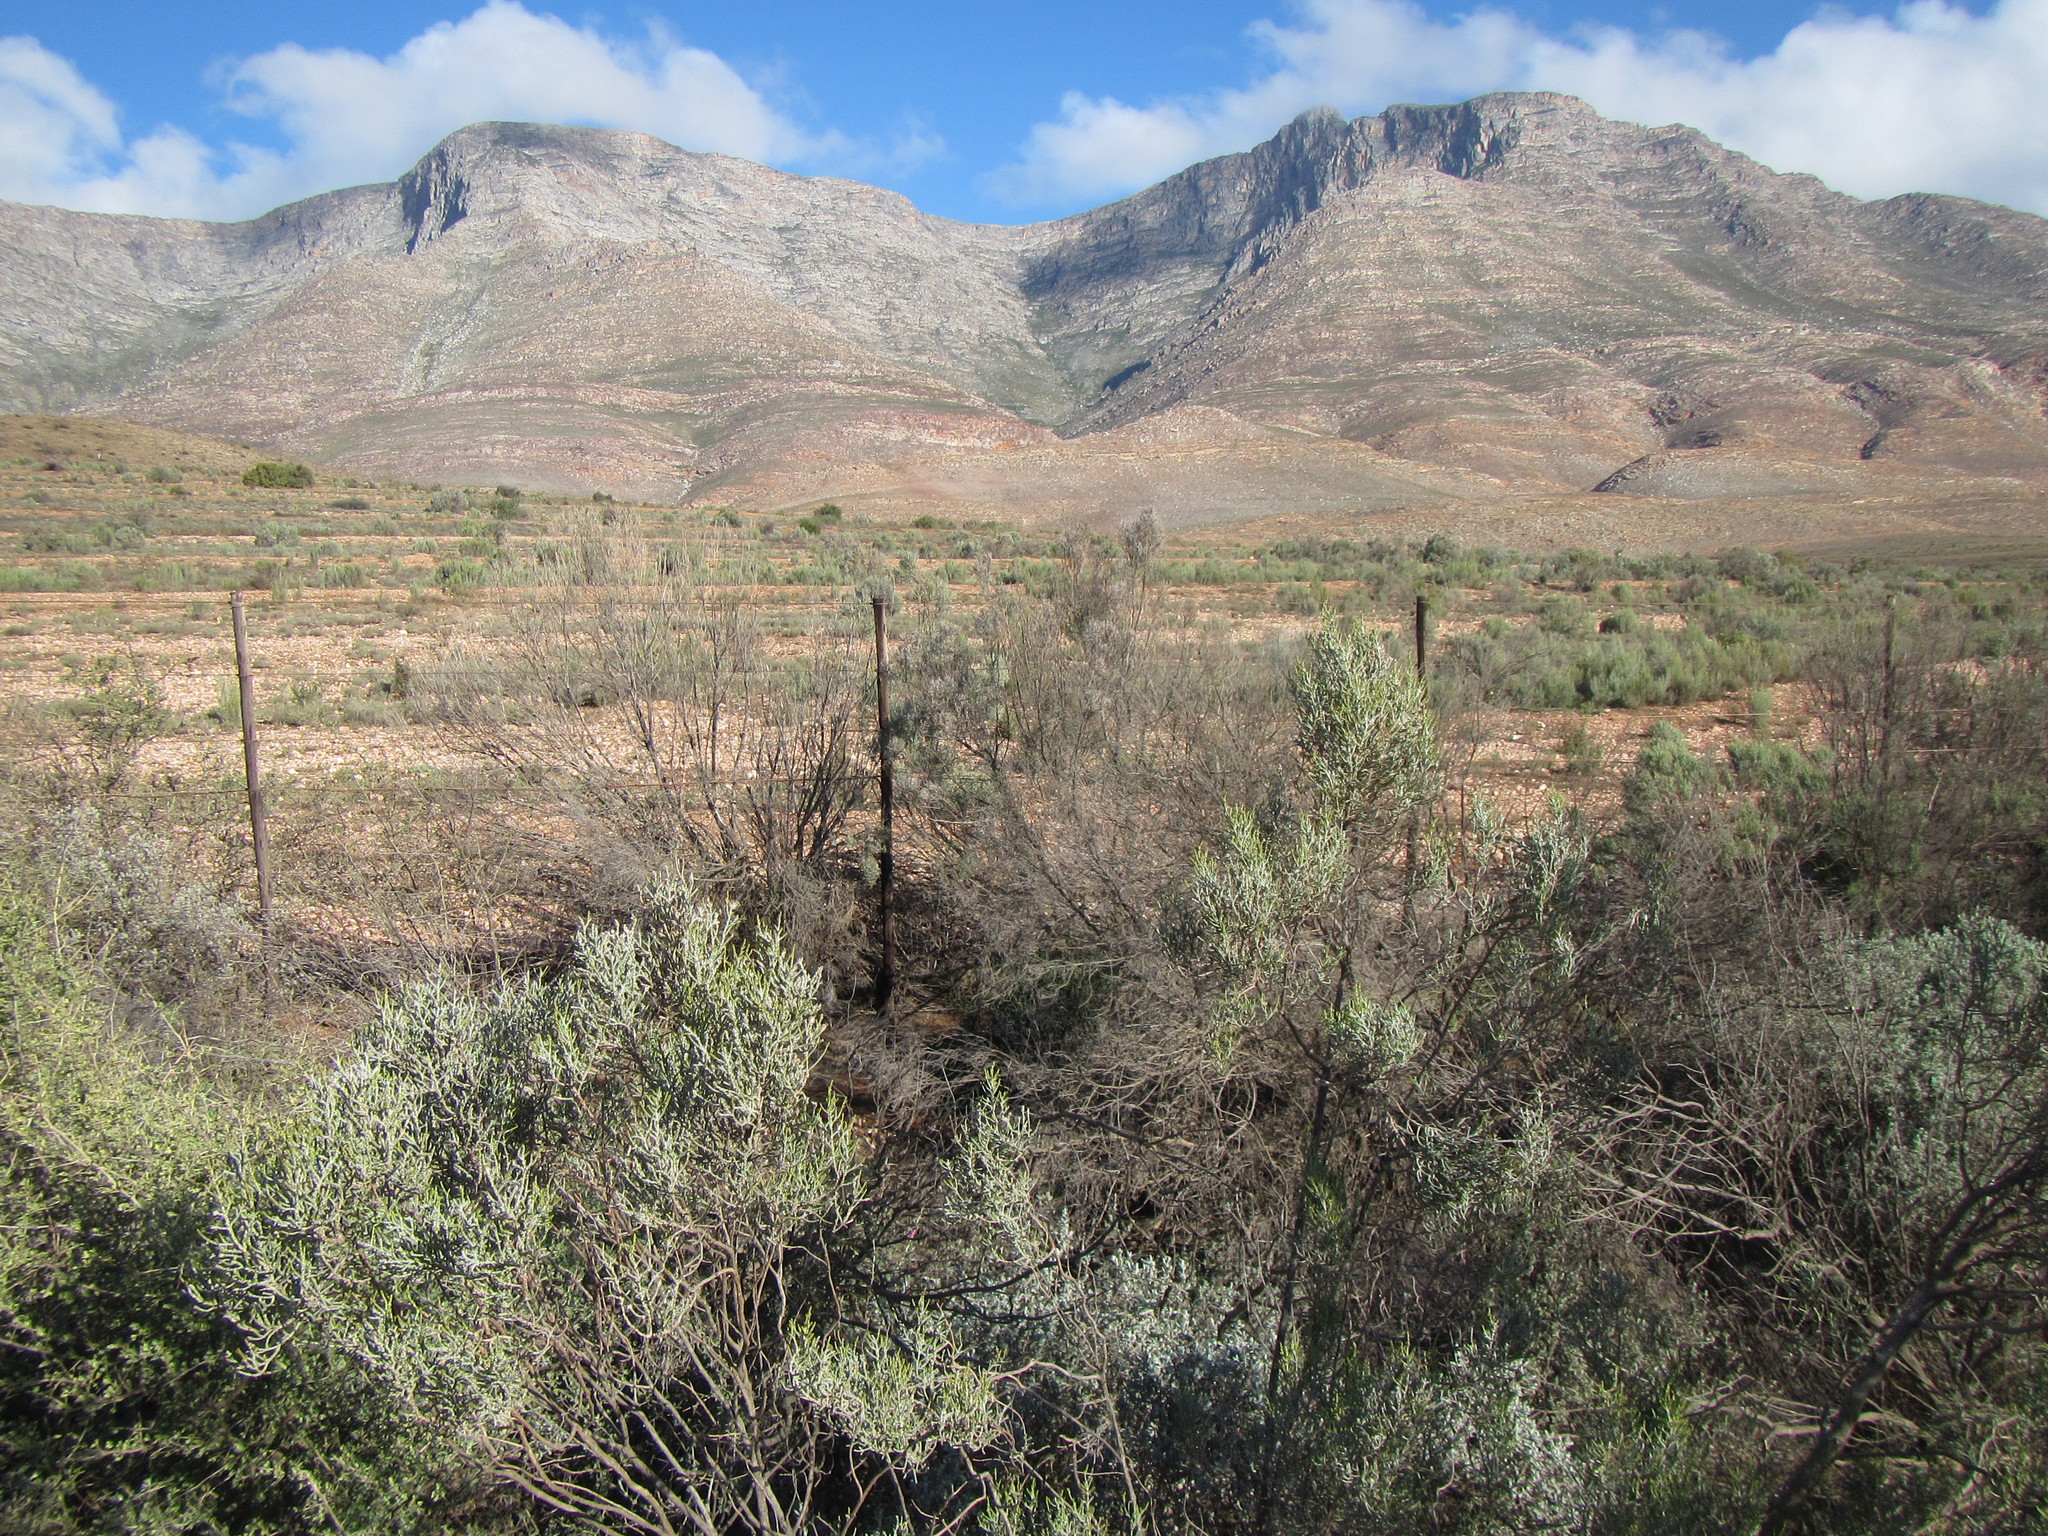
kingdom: Plantae
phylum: Tracheophyta
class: Magnoliopsida
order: Asterales
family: Asteraceae
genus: Dicerothamnus
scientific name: Dicerothamnus rhinocerotis
